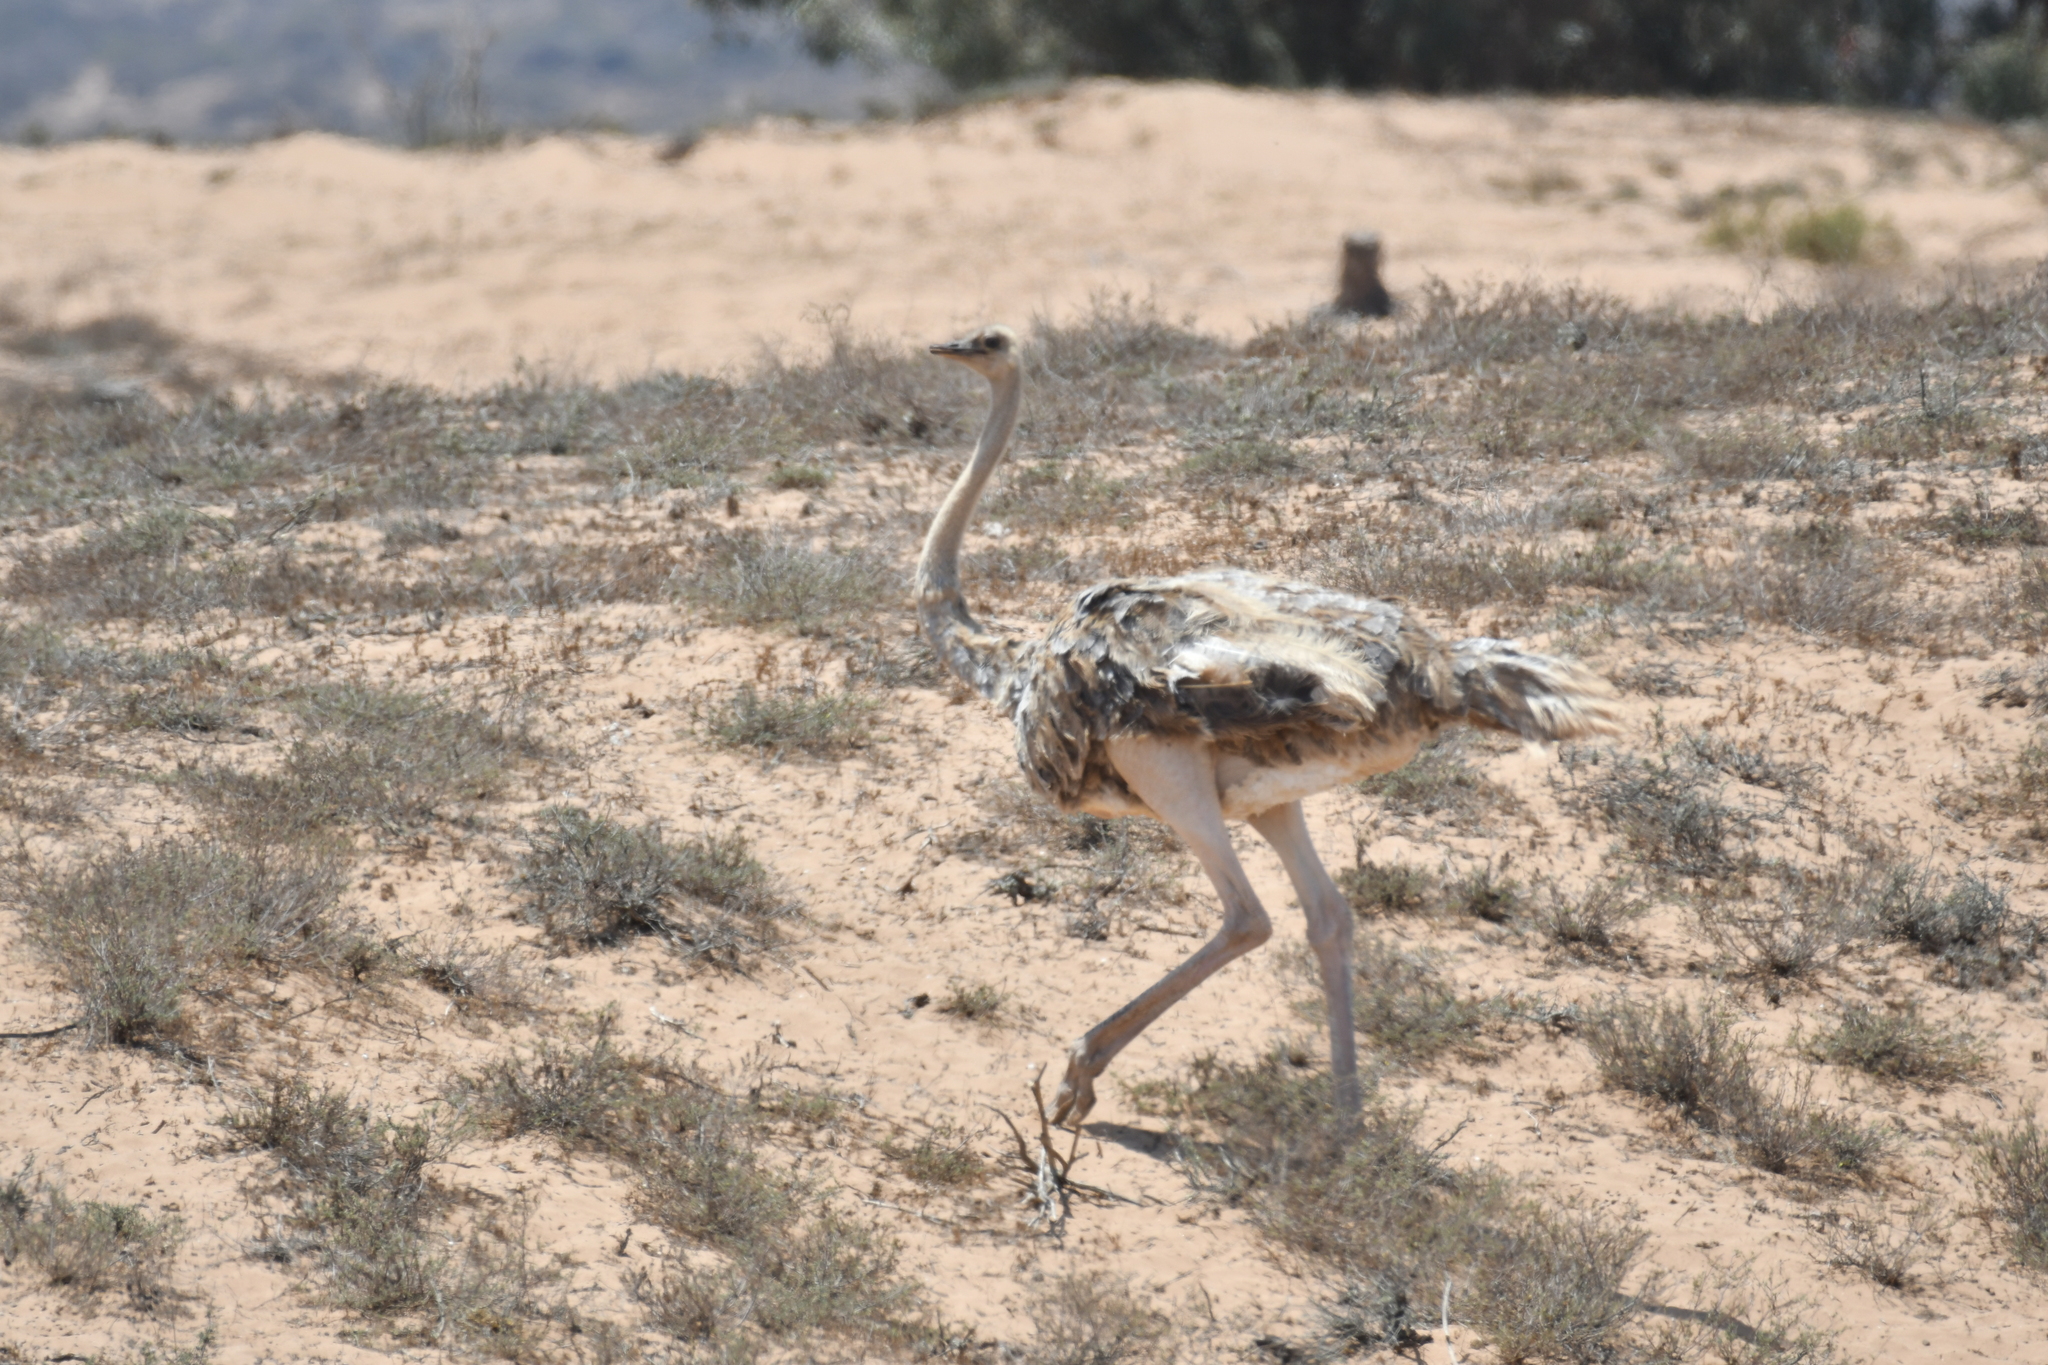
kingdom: Animalia
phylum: Chordata
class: Aves
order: Struthioniformes
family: Struthionidae
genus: Struthio
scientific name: Struthio camelus
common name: Common ostrich
